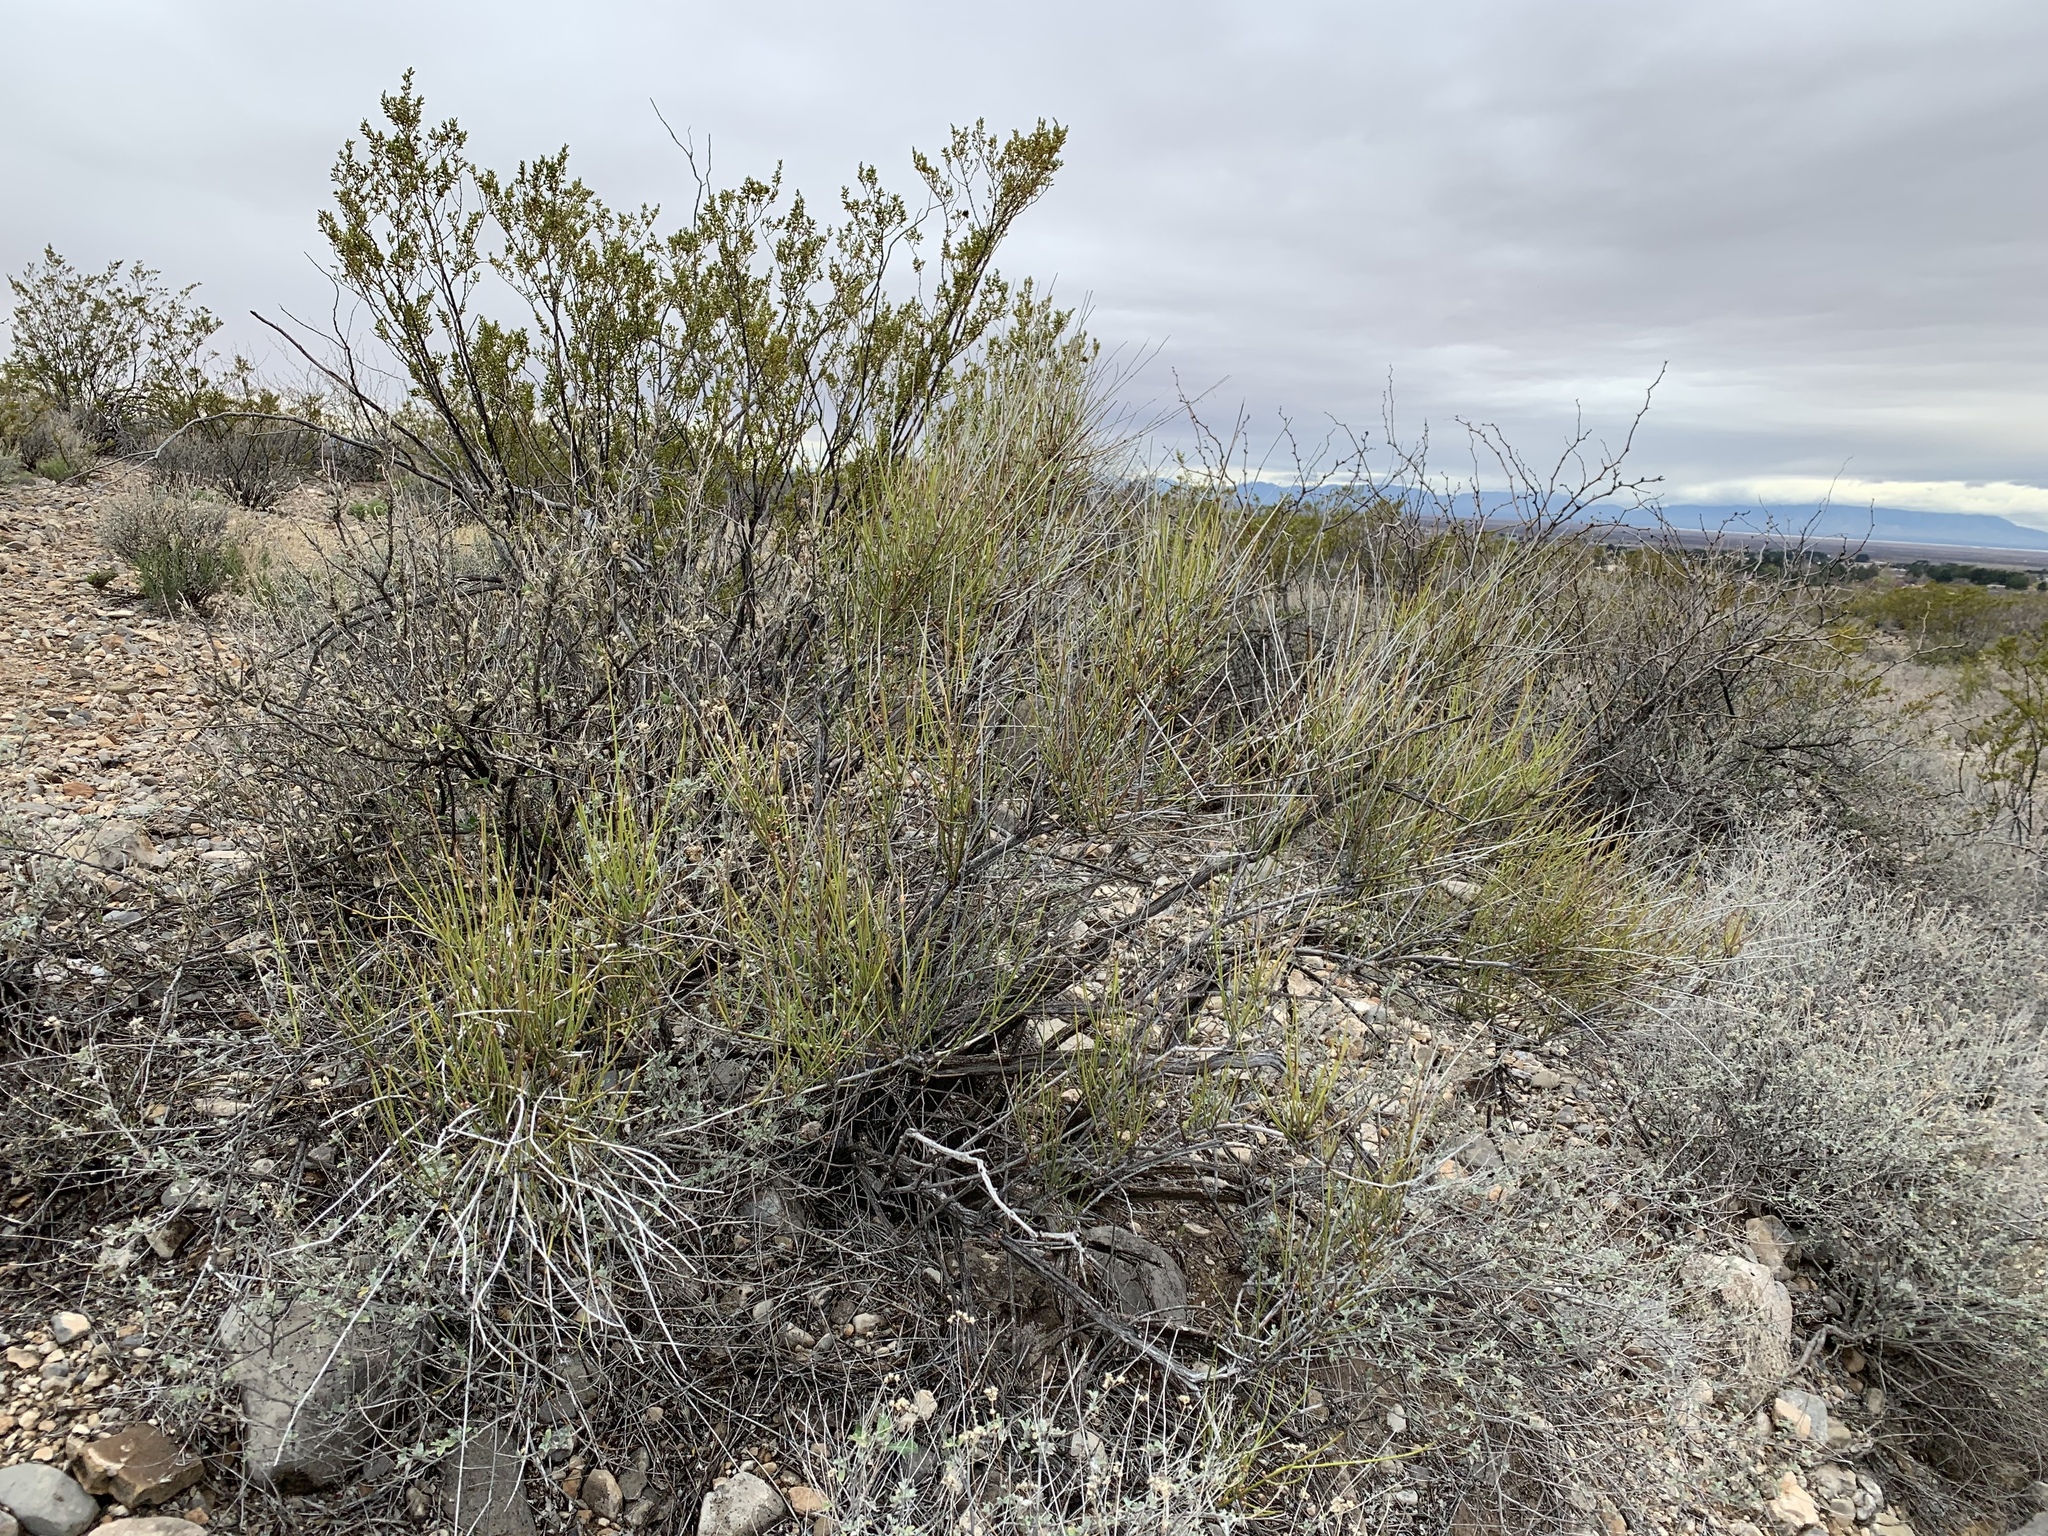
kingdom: Plantae
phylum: Tracheophyta
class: Gnetopsida
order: Ephedrales
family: Ephedraceae
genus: Ephedra
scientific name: Ephedra trifurca
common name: Mexican-tea
